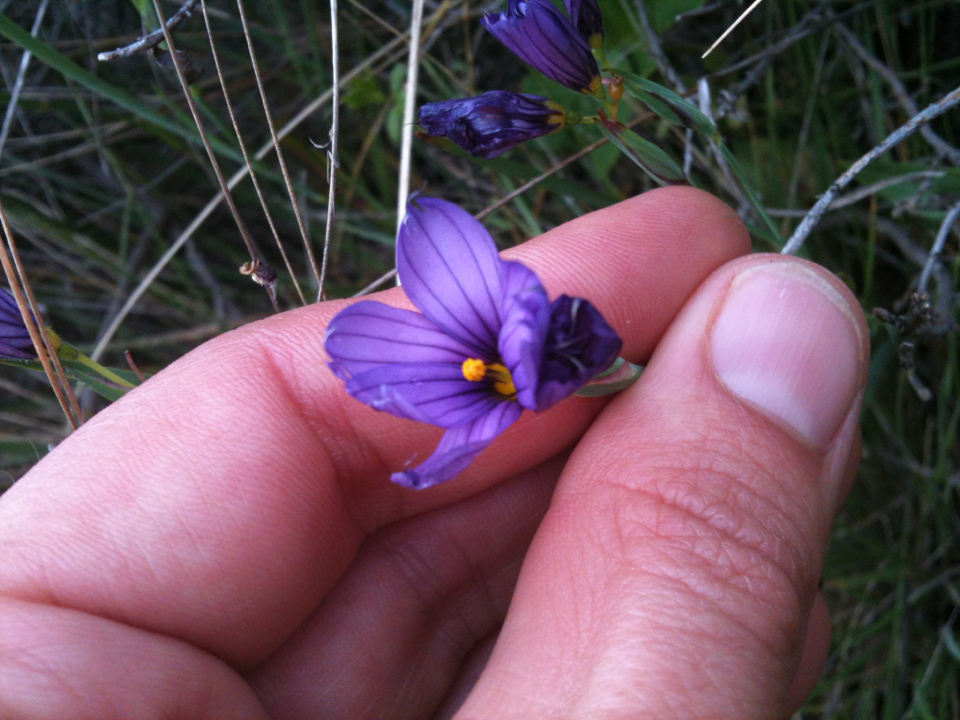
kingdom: Plantae
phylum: Tracheophyta
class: Liliopsida
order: Asparagales
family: Iridaceae
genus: Sisyrinchium
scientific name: Sisyrinchium bellum
